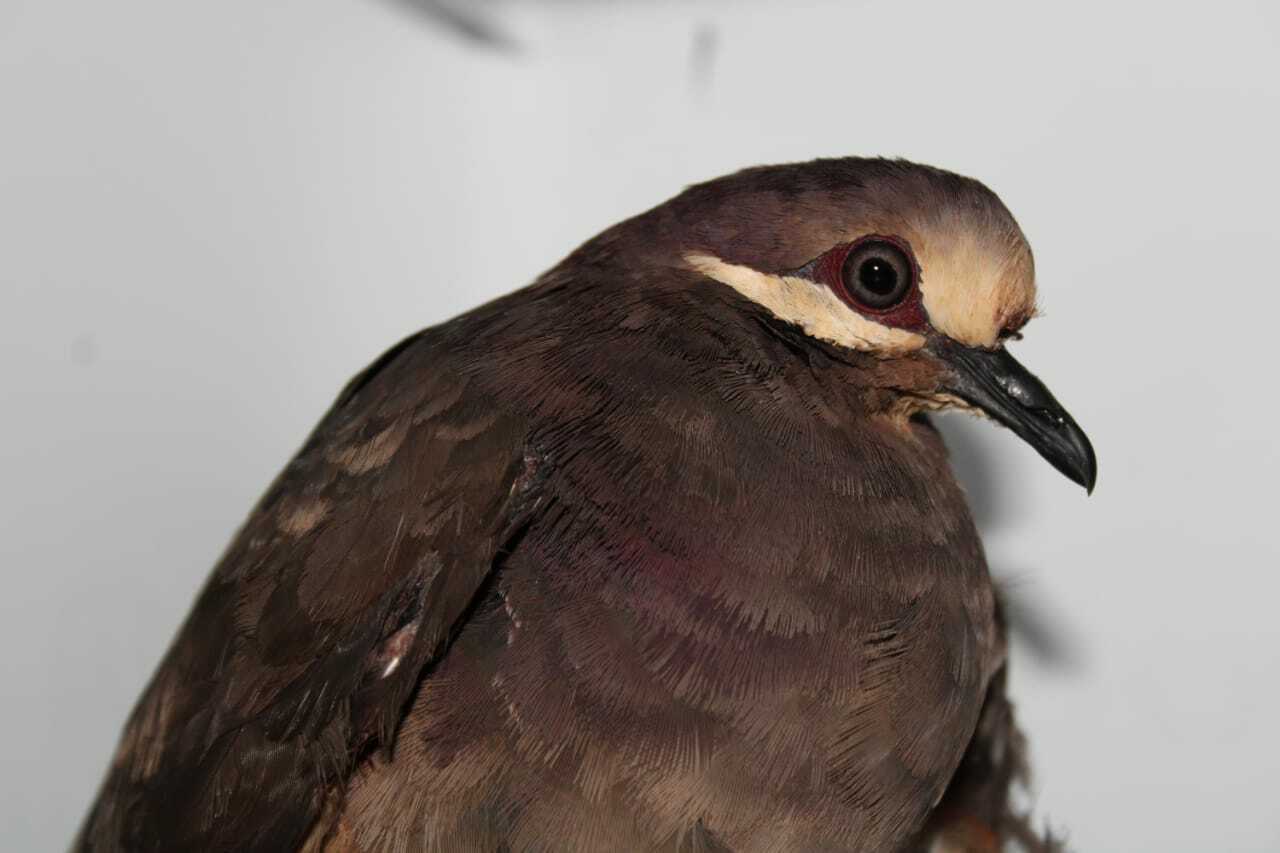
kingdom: Animalia
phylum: Chordata
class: Aves
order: Columbiformes
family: Columbidae
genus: Leptotrygon
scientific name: Leptotrygon veraguensis
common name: Olive-backed quail-dove
